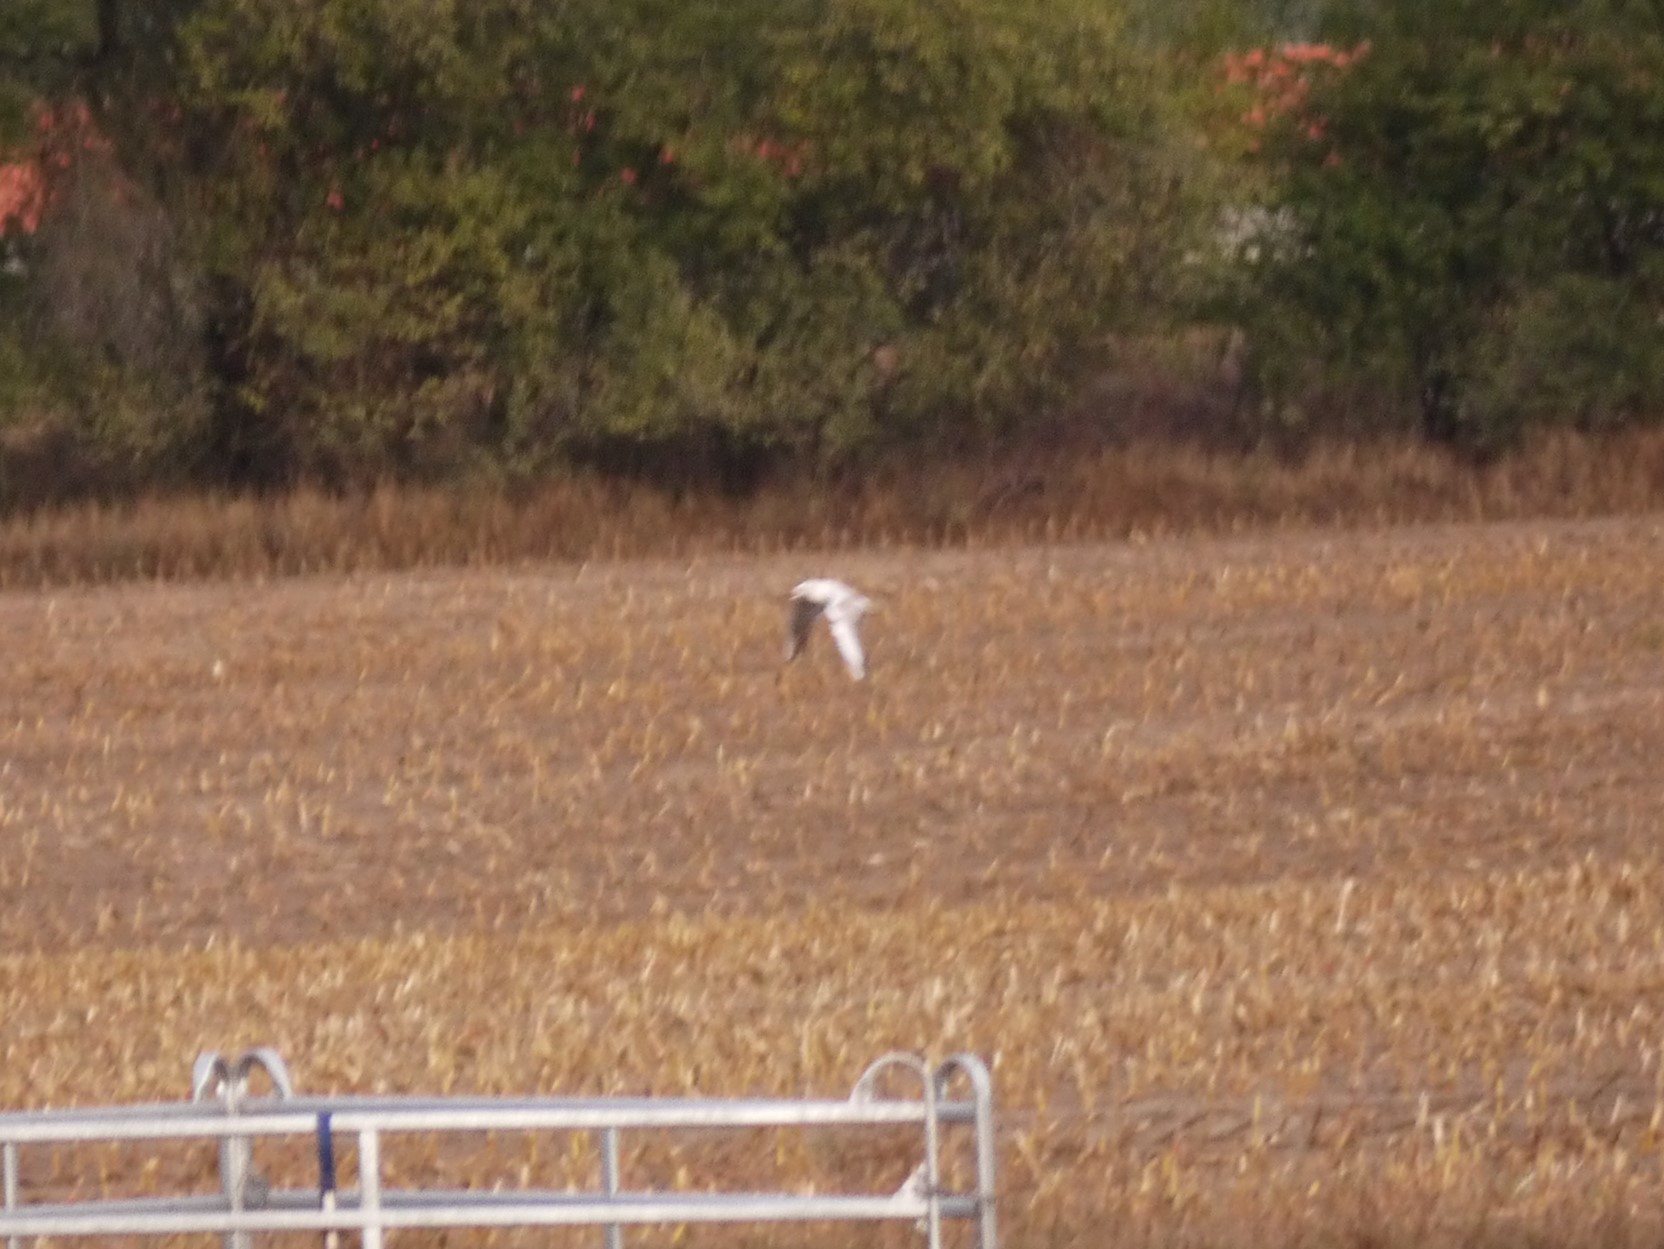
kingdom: Animalia
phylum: Chordata
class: Aves
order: Charadriiformes
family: Laridae
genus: Chroicocephalus
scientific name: Chroicocephalus ridibundus
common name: Black-headed gull
